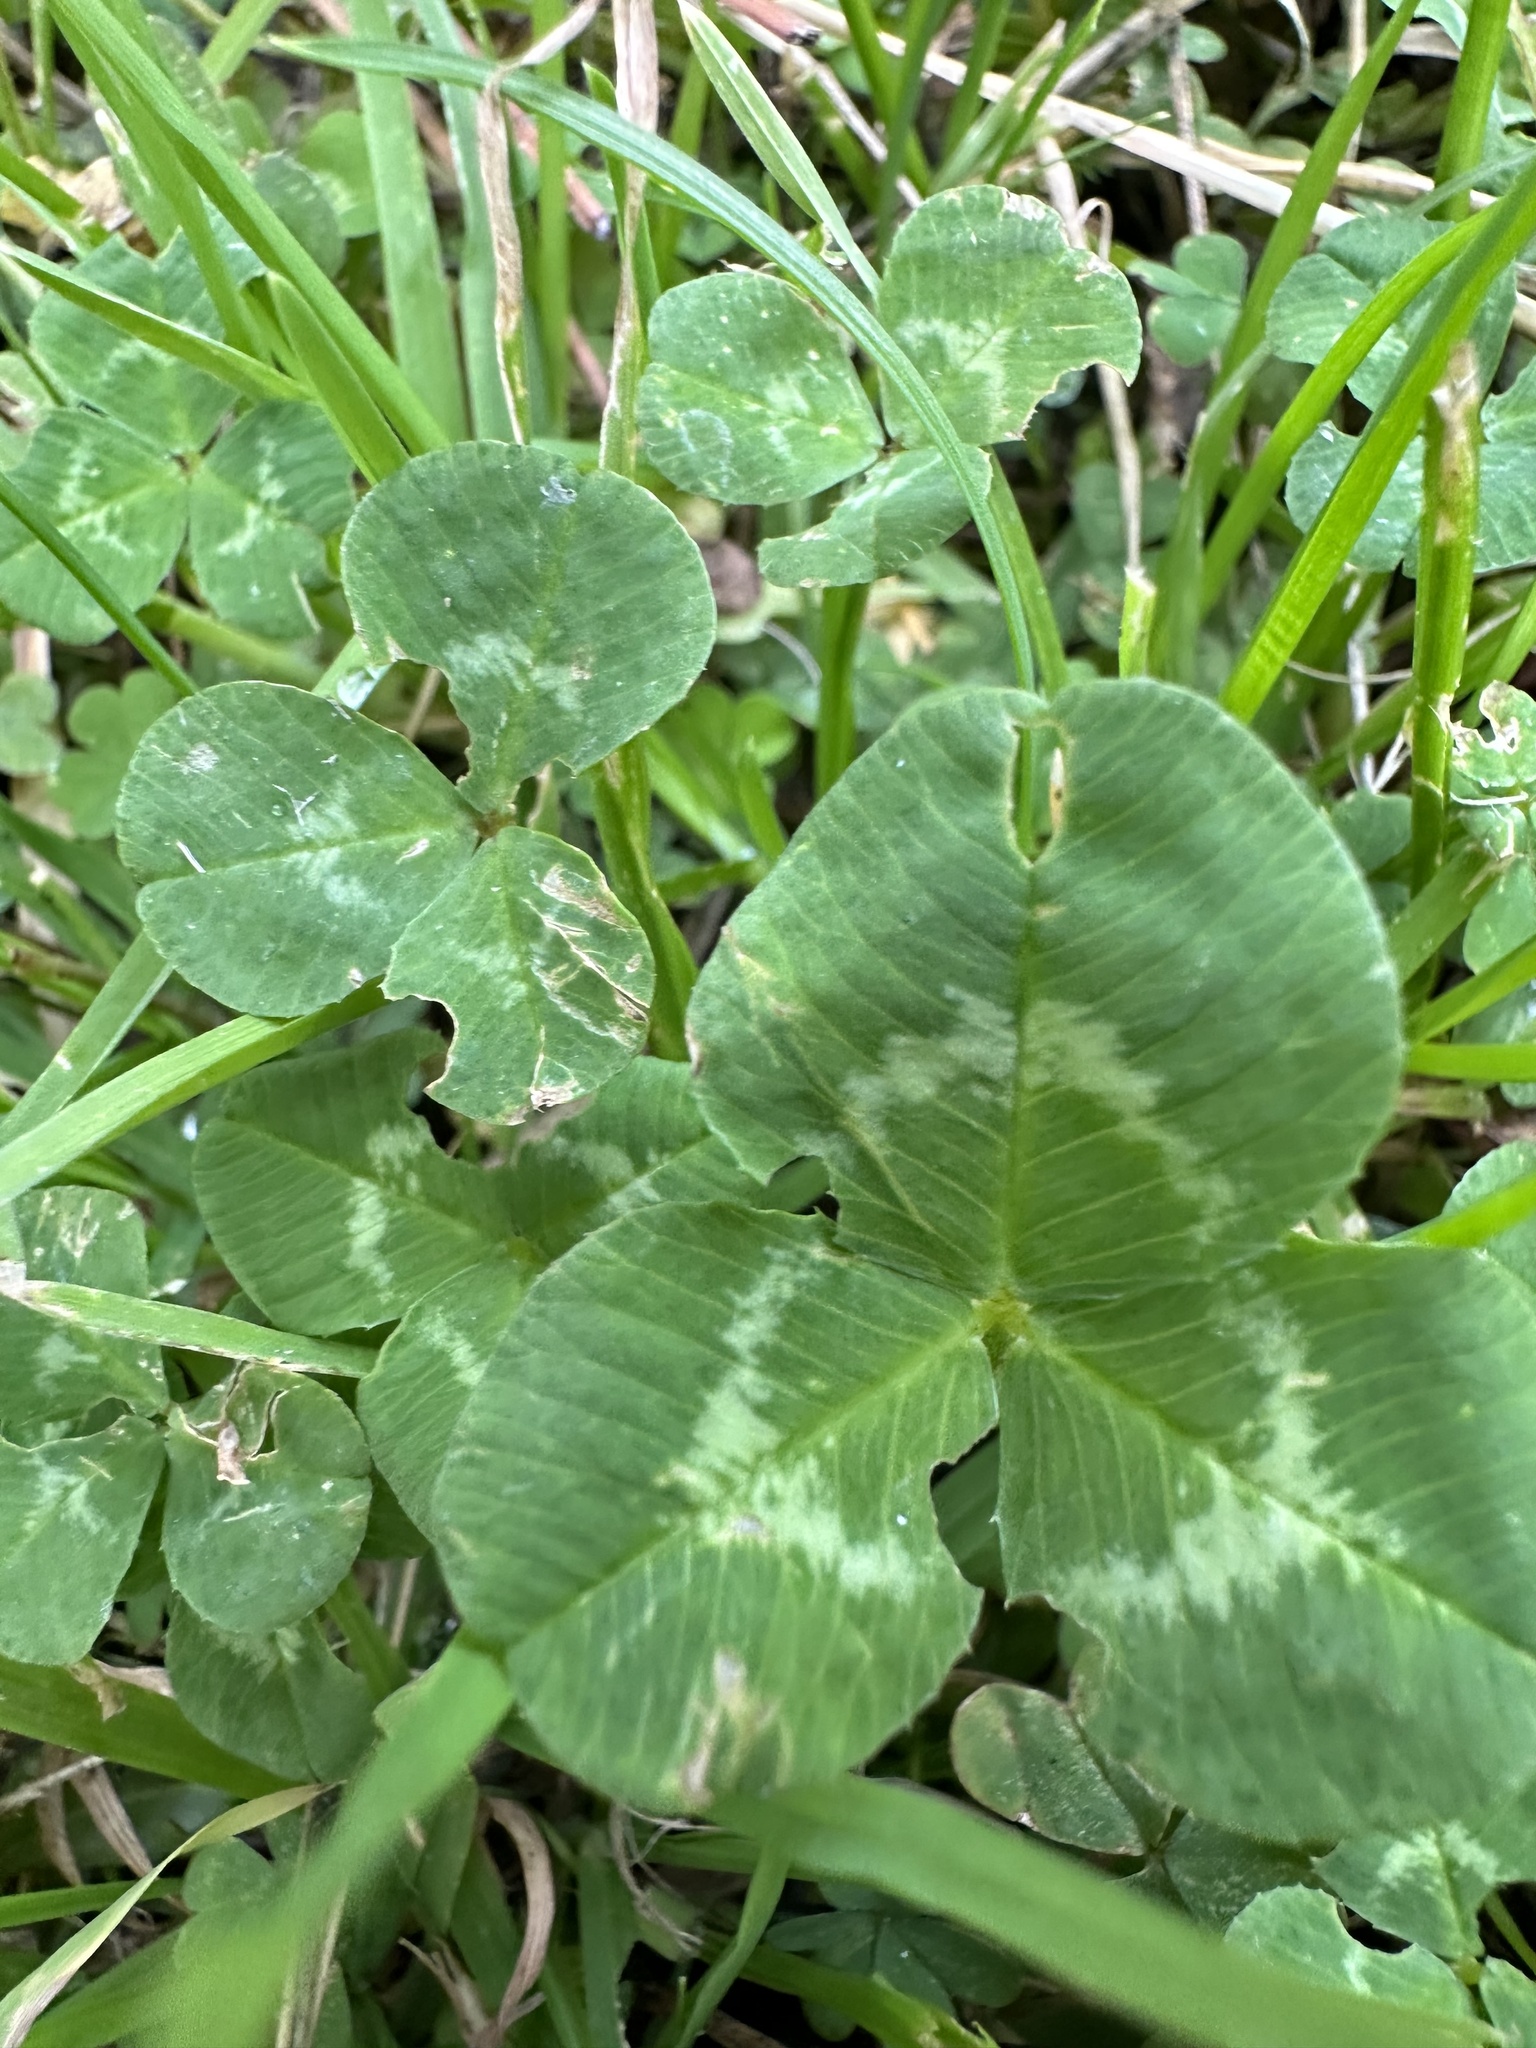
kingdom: Plantae
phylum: Tracheophyta
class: Magnoliopsida
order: Fabales
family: Fabaceae
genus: Trifolium
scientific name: Trifolium repens
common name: White clover
